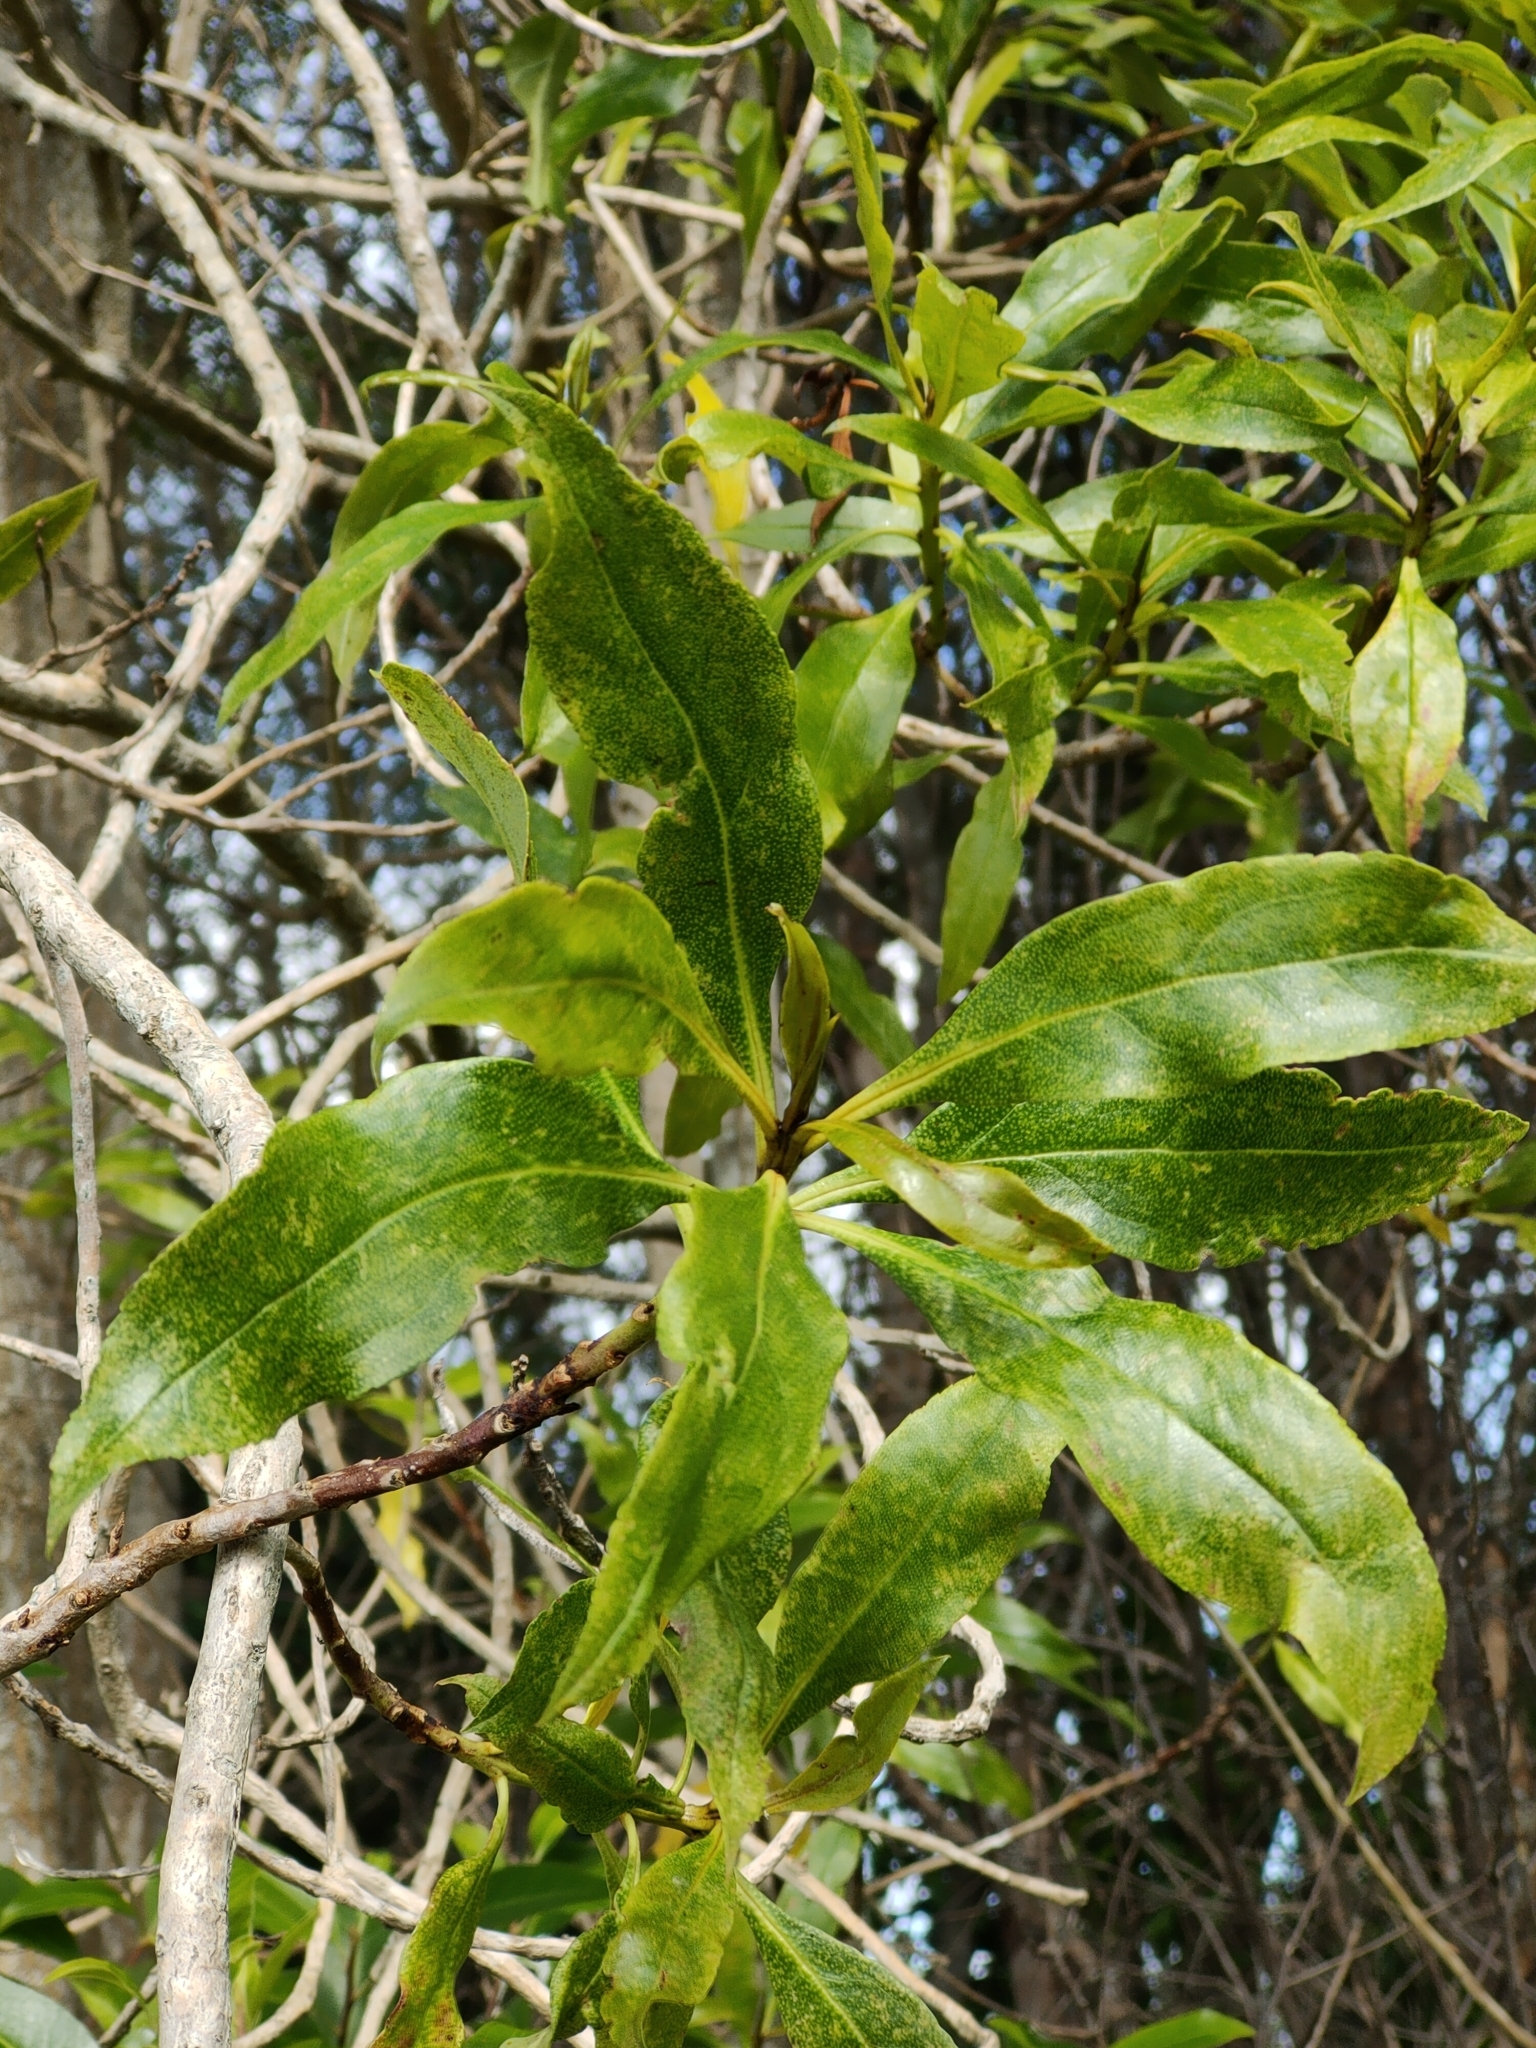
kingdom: Plantae
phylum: Tracheophyta
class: Magnoliopsida
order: Lamiales
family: Scrophulariaceae
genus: Myoporum
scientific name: Myoporum laetum
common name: Ngaio tree
